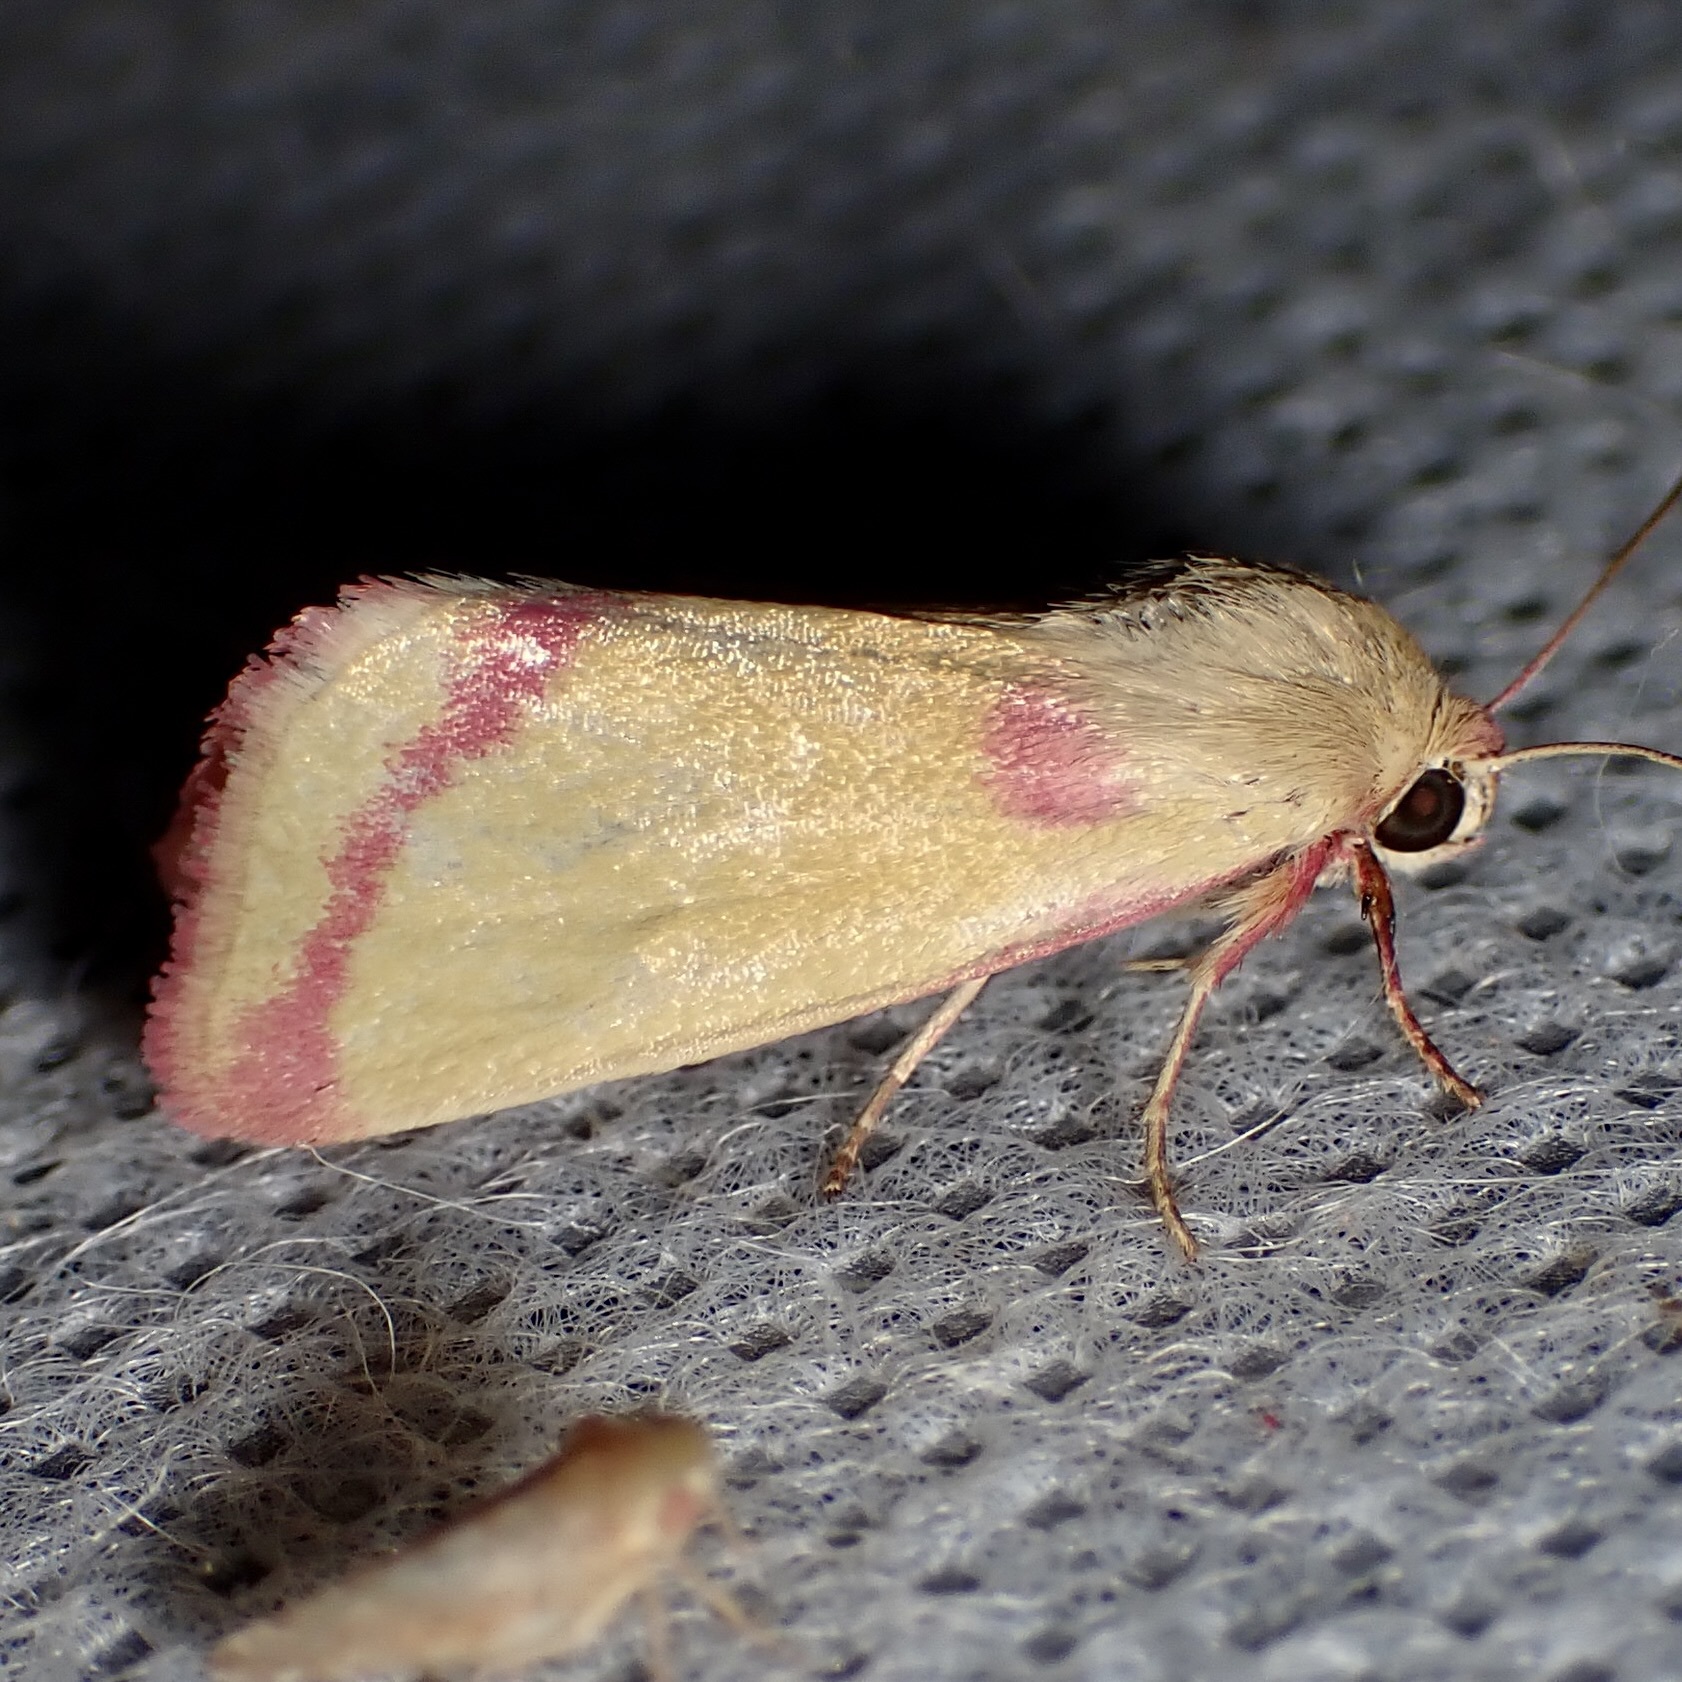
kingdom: Animalia
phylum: Arthropoda
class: Insecta
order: Lepidoptera
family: Noctuidae
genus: Heliocheilus
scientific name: Heliocheilus toralis
